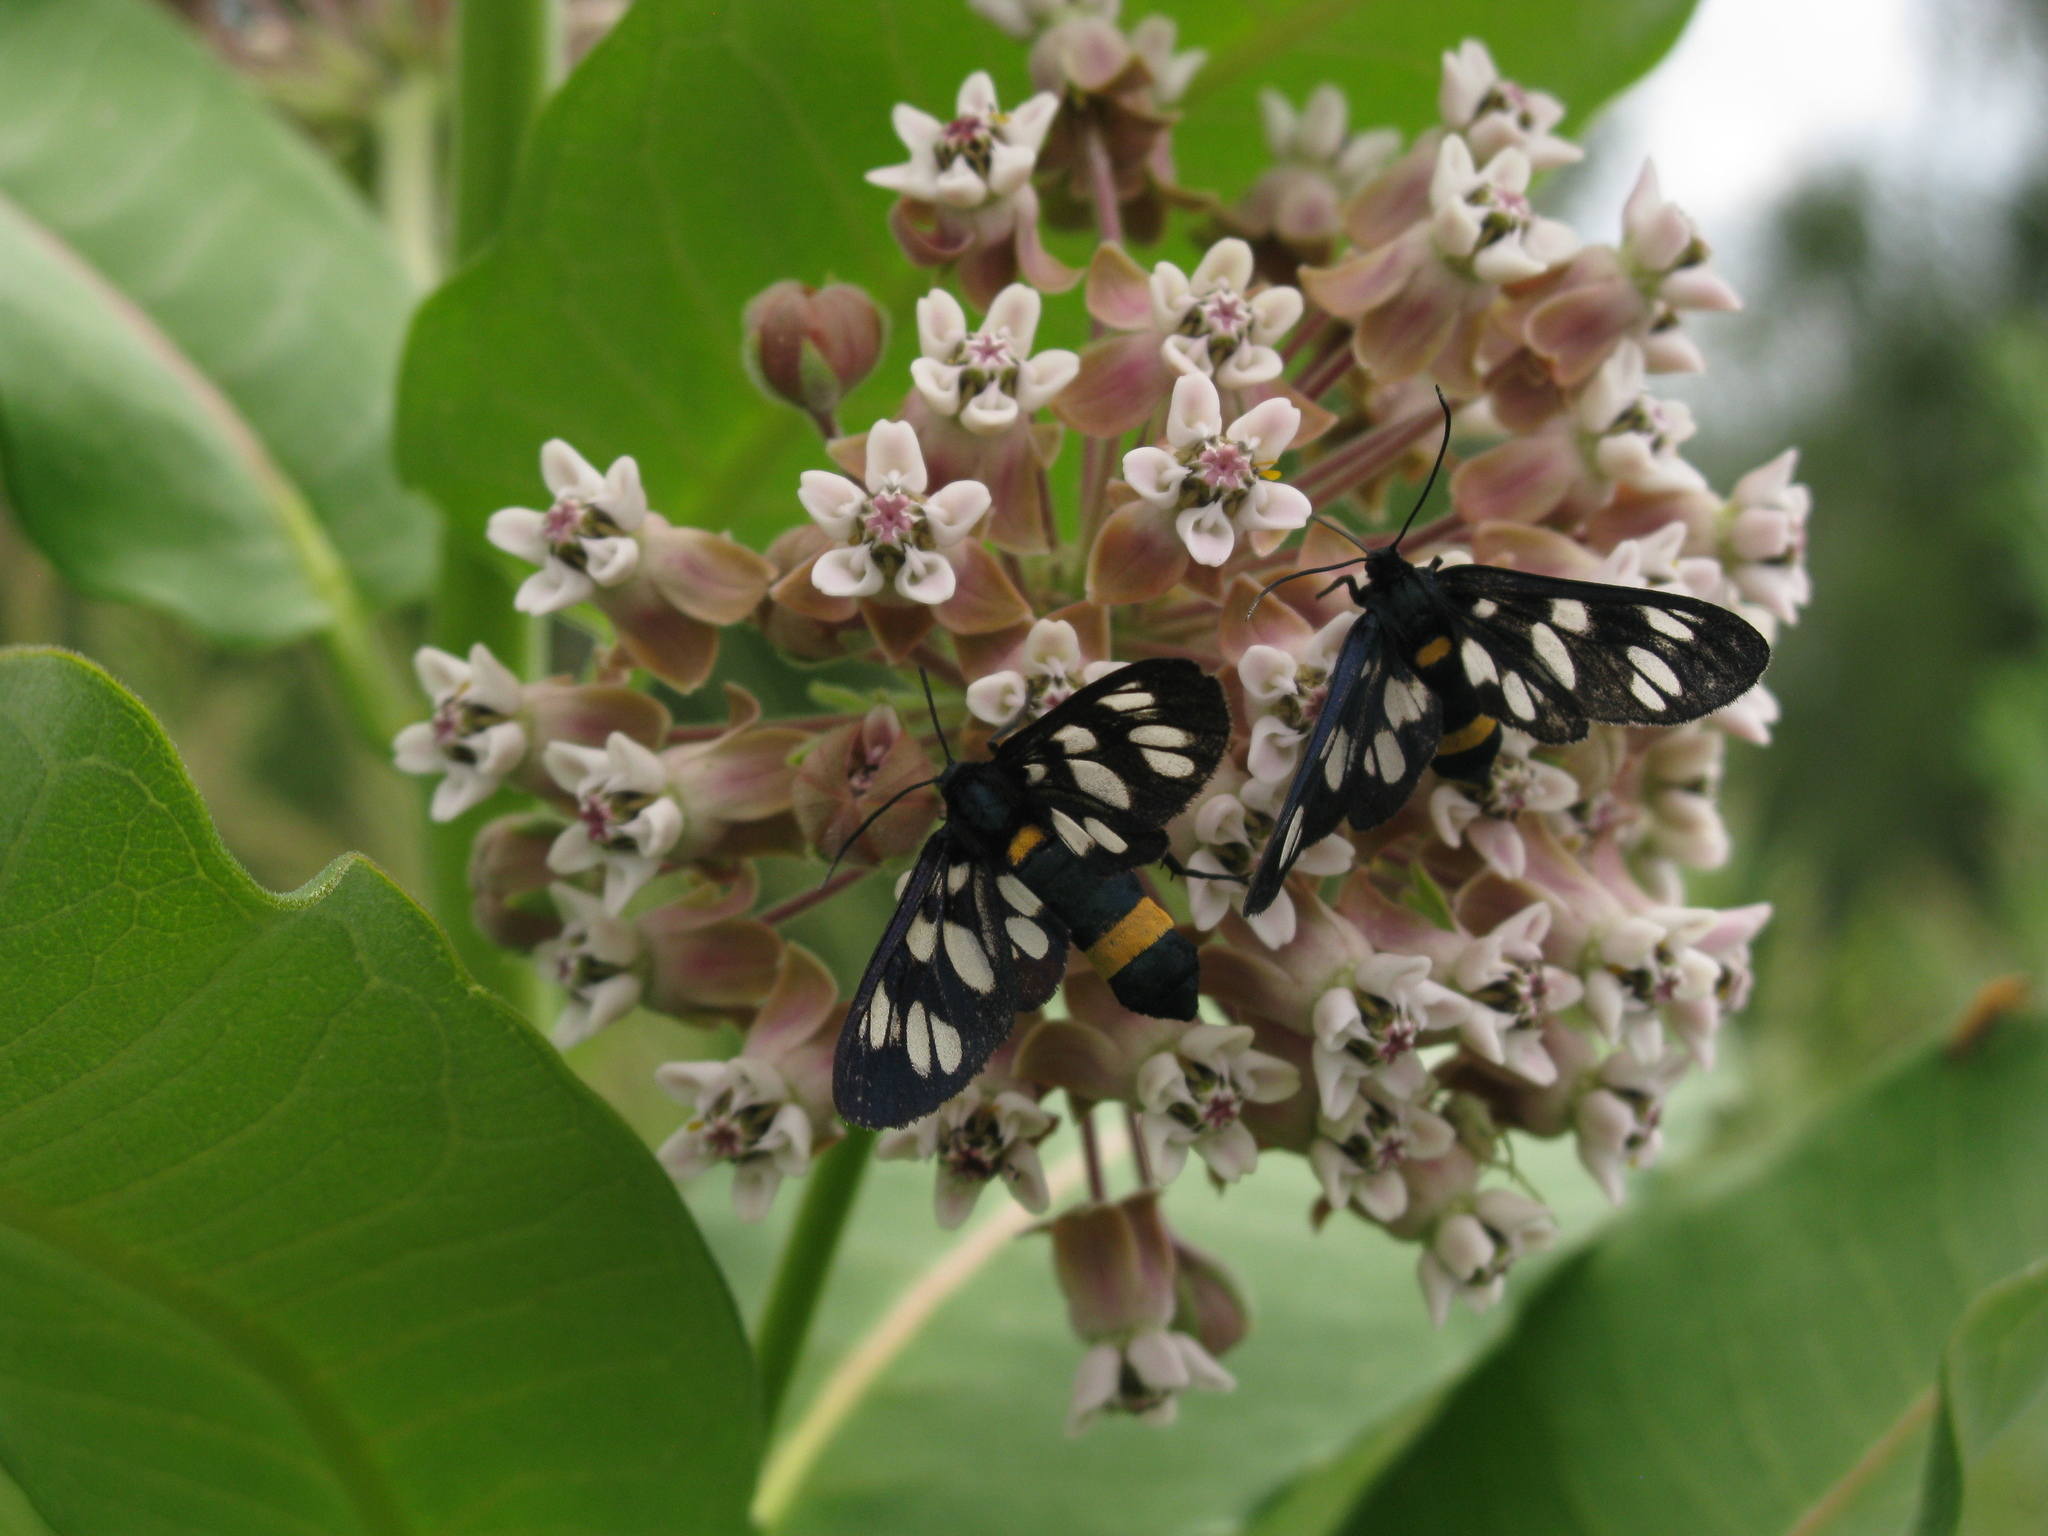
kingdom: Animalia
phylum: Arthropoda
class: Insecta
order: Lepidoptera
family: Erebidae
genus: Amata
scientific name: Amata phegea
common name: Nine-spotted
